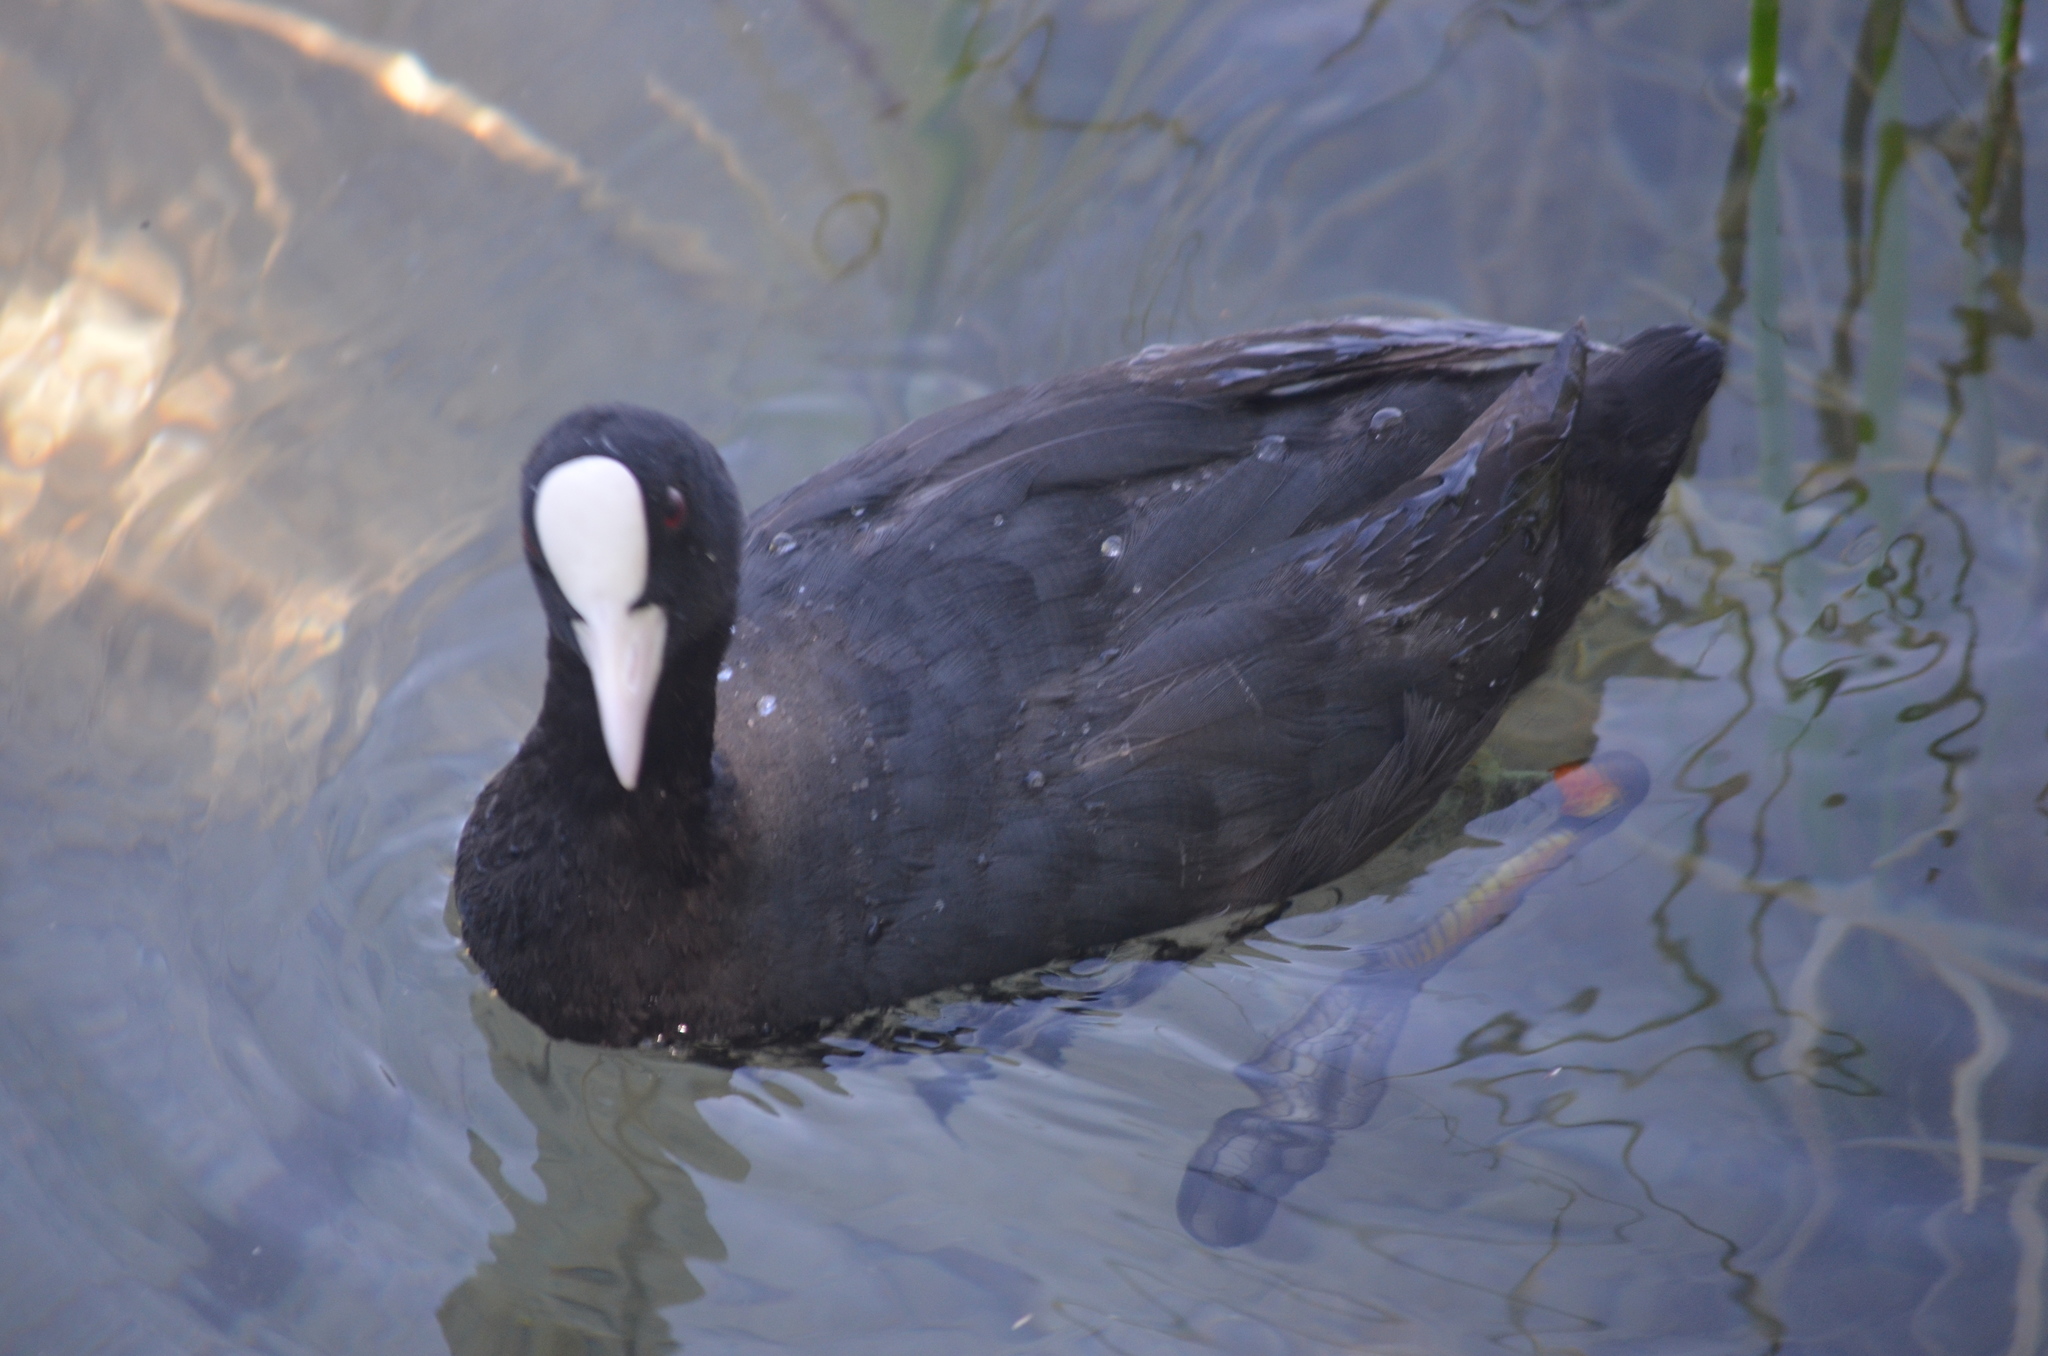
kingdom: Animalia
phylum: Chordata
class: Aves
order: Gruiformes
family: Rallidae
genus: Fulica
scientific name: Fulica atra
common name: Eurasian coot
